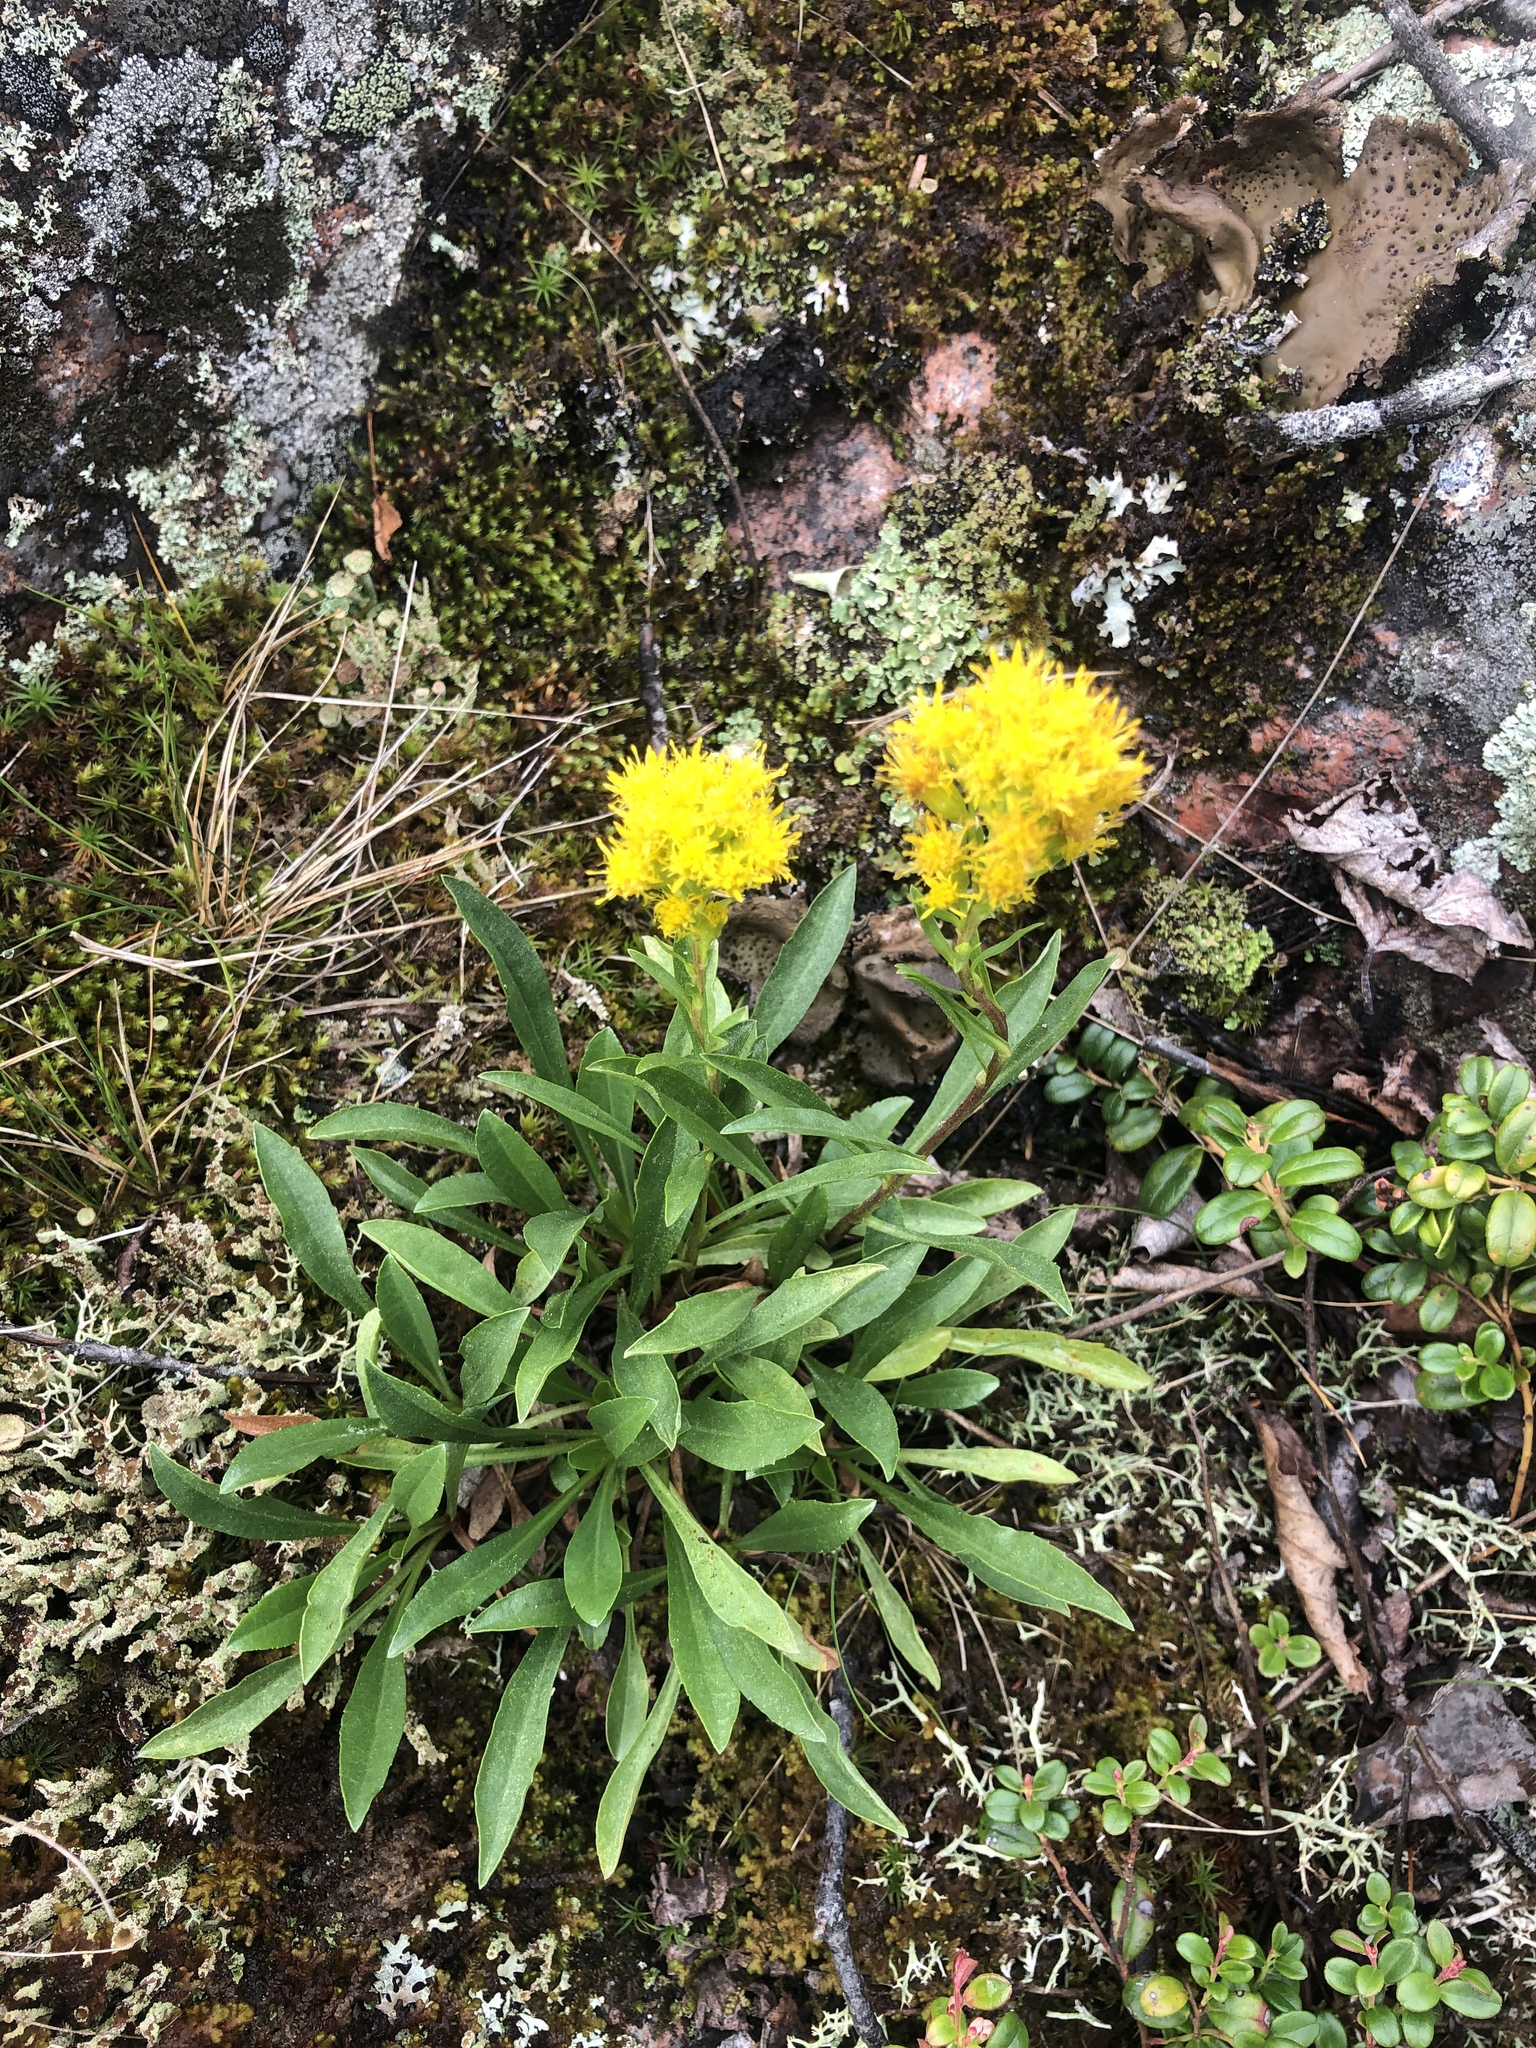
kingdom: Plantae
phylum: Tracheophyta
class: Magnoliopsida
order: Asterales
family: Asteraceae
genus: Solidago
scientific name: Solidago glutinosa
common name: Decumbent goldenrod
